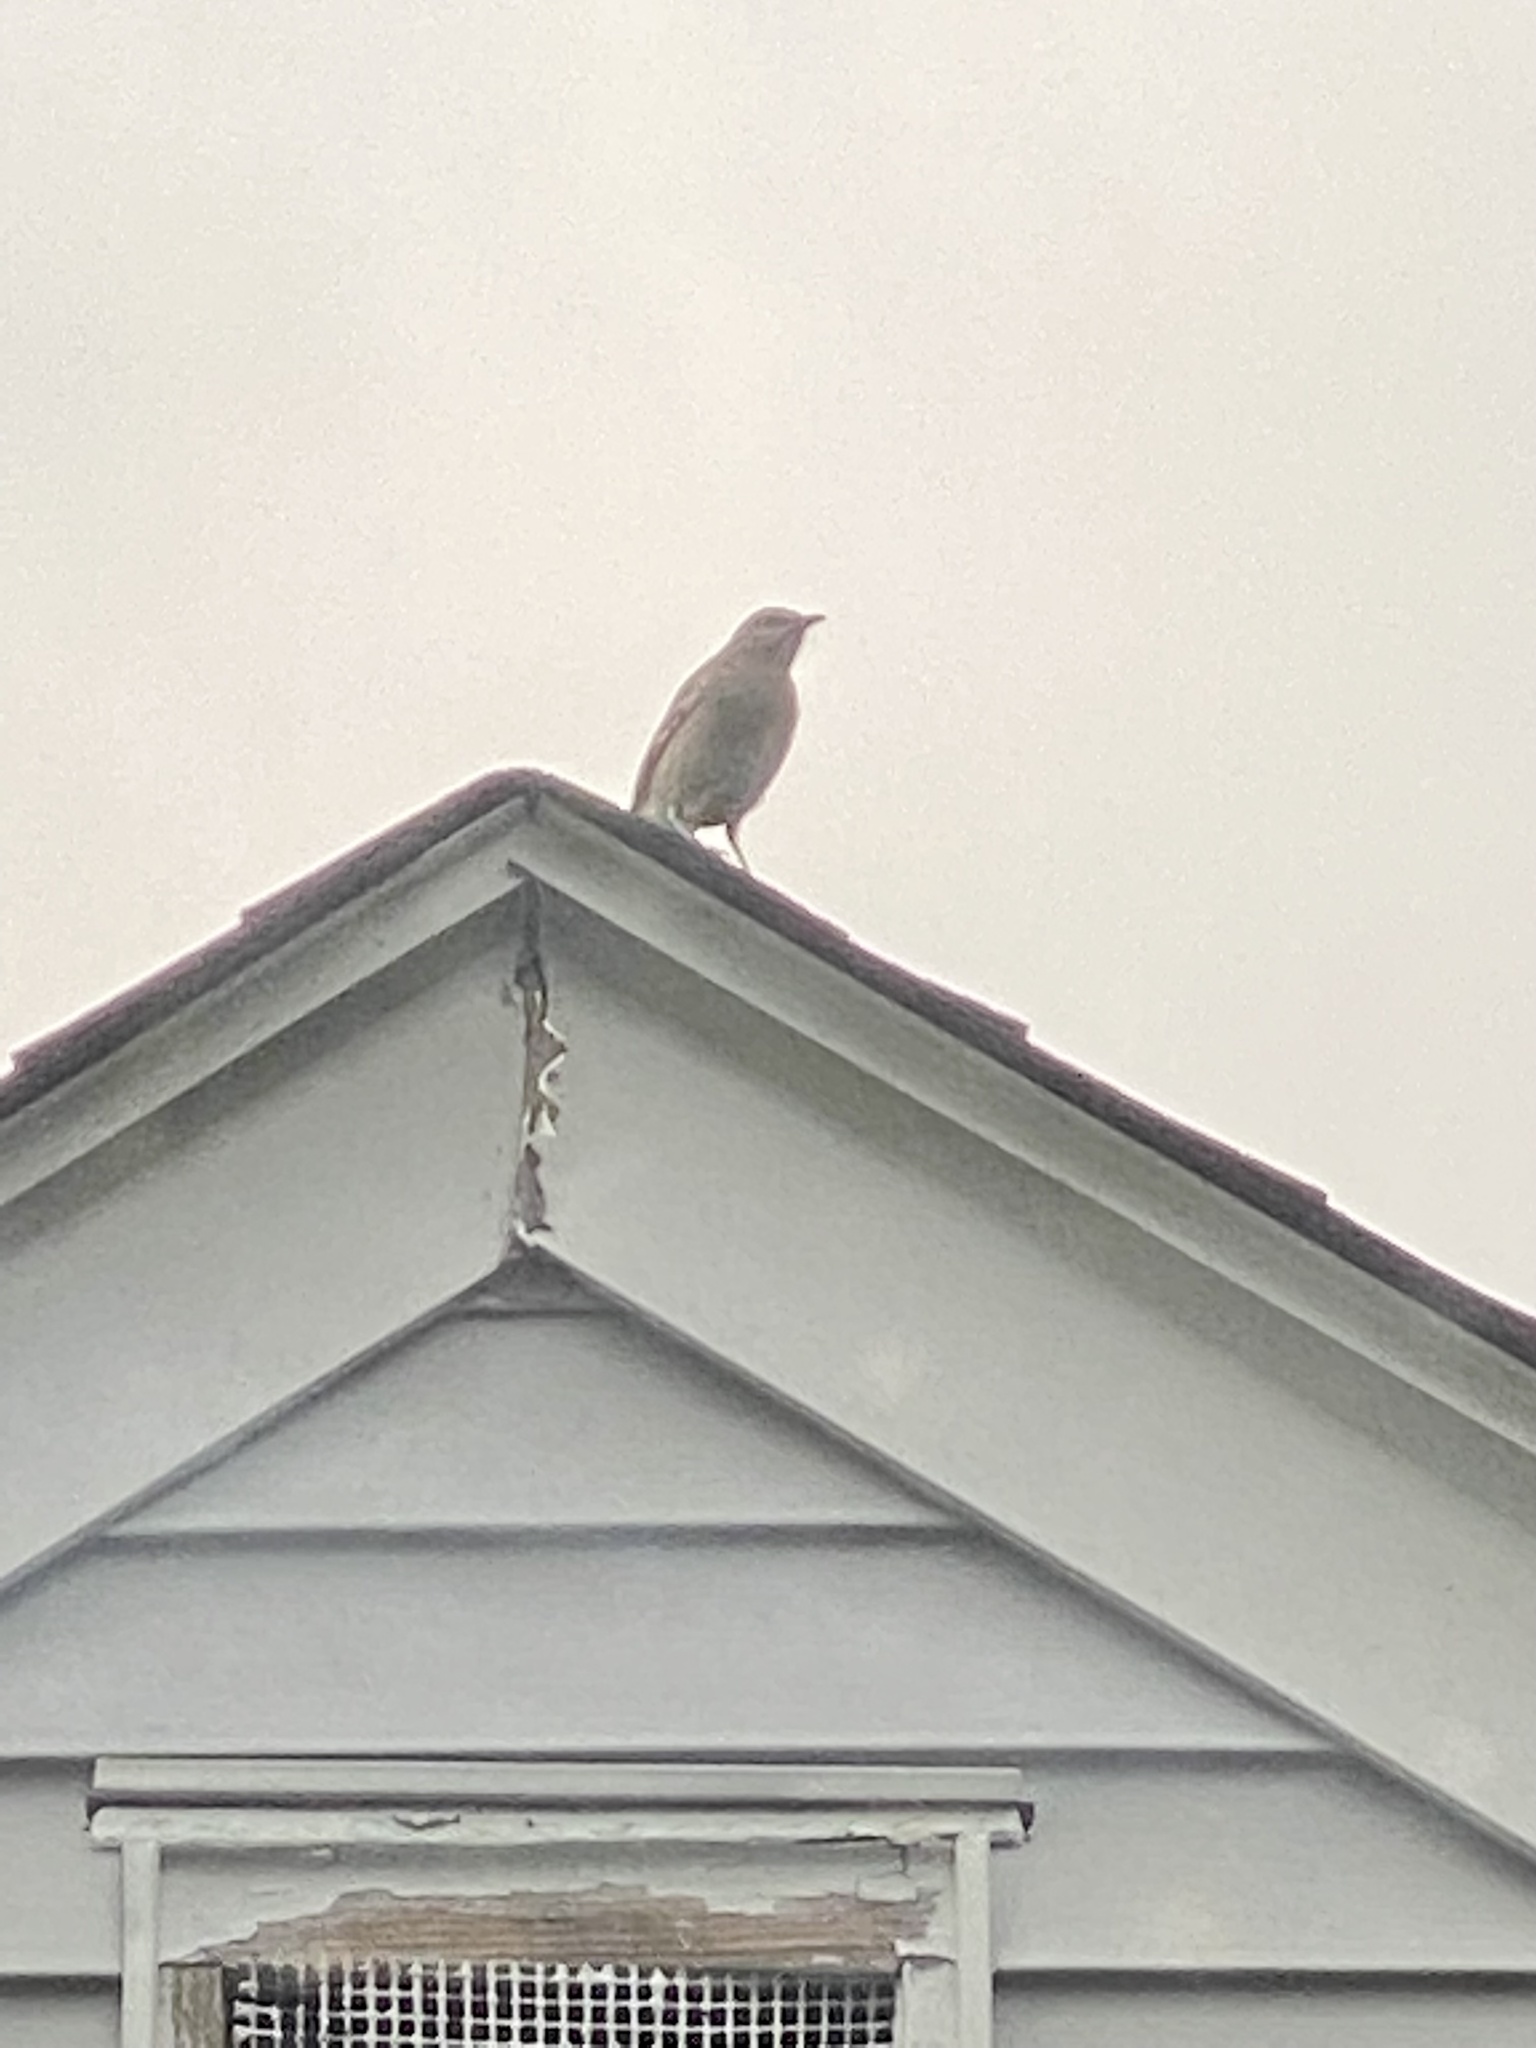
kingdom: Animalia
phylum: Chordata
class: Aves
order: Passeriformes
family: Mimidae
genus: Mimus
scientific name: Mimus polyglottos
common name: Northern mockingbird
